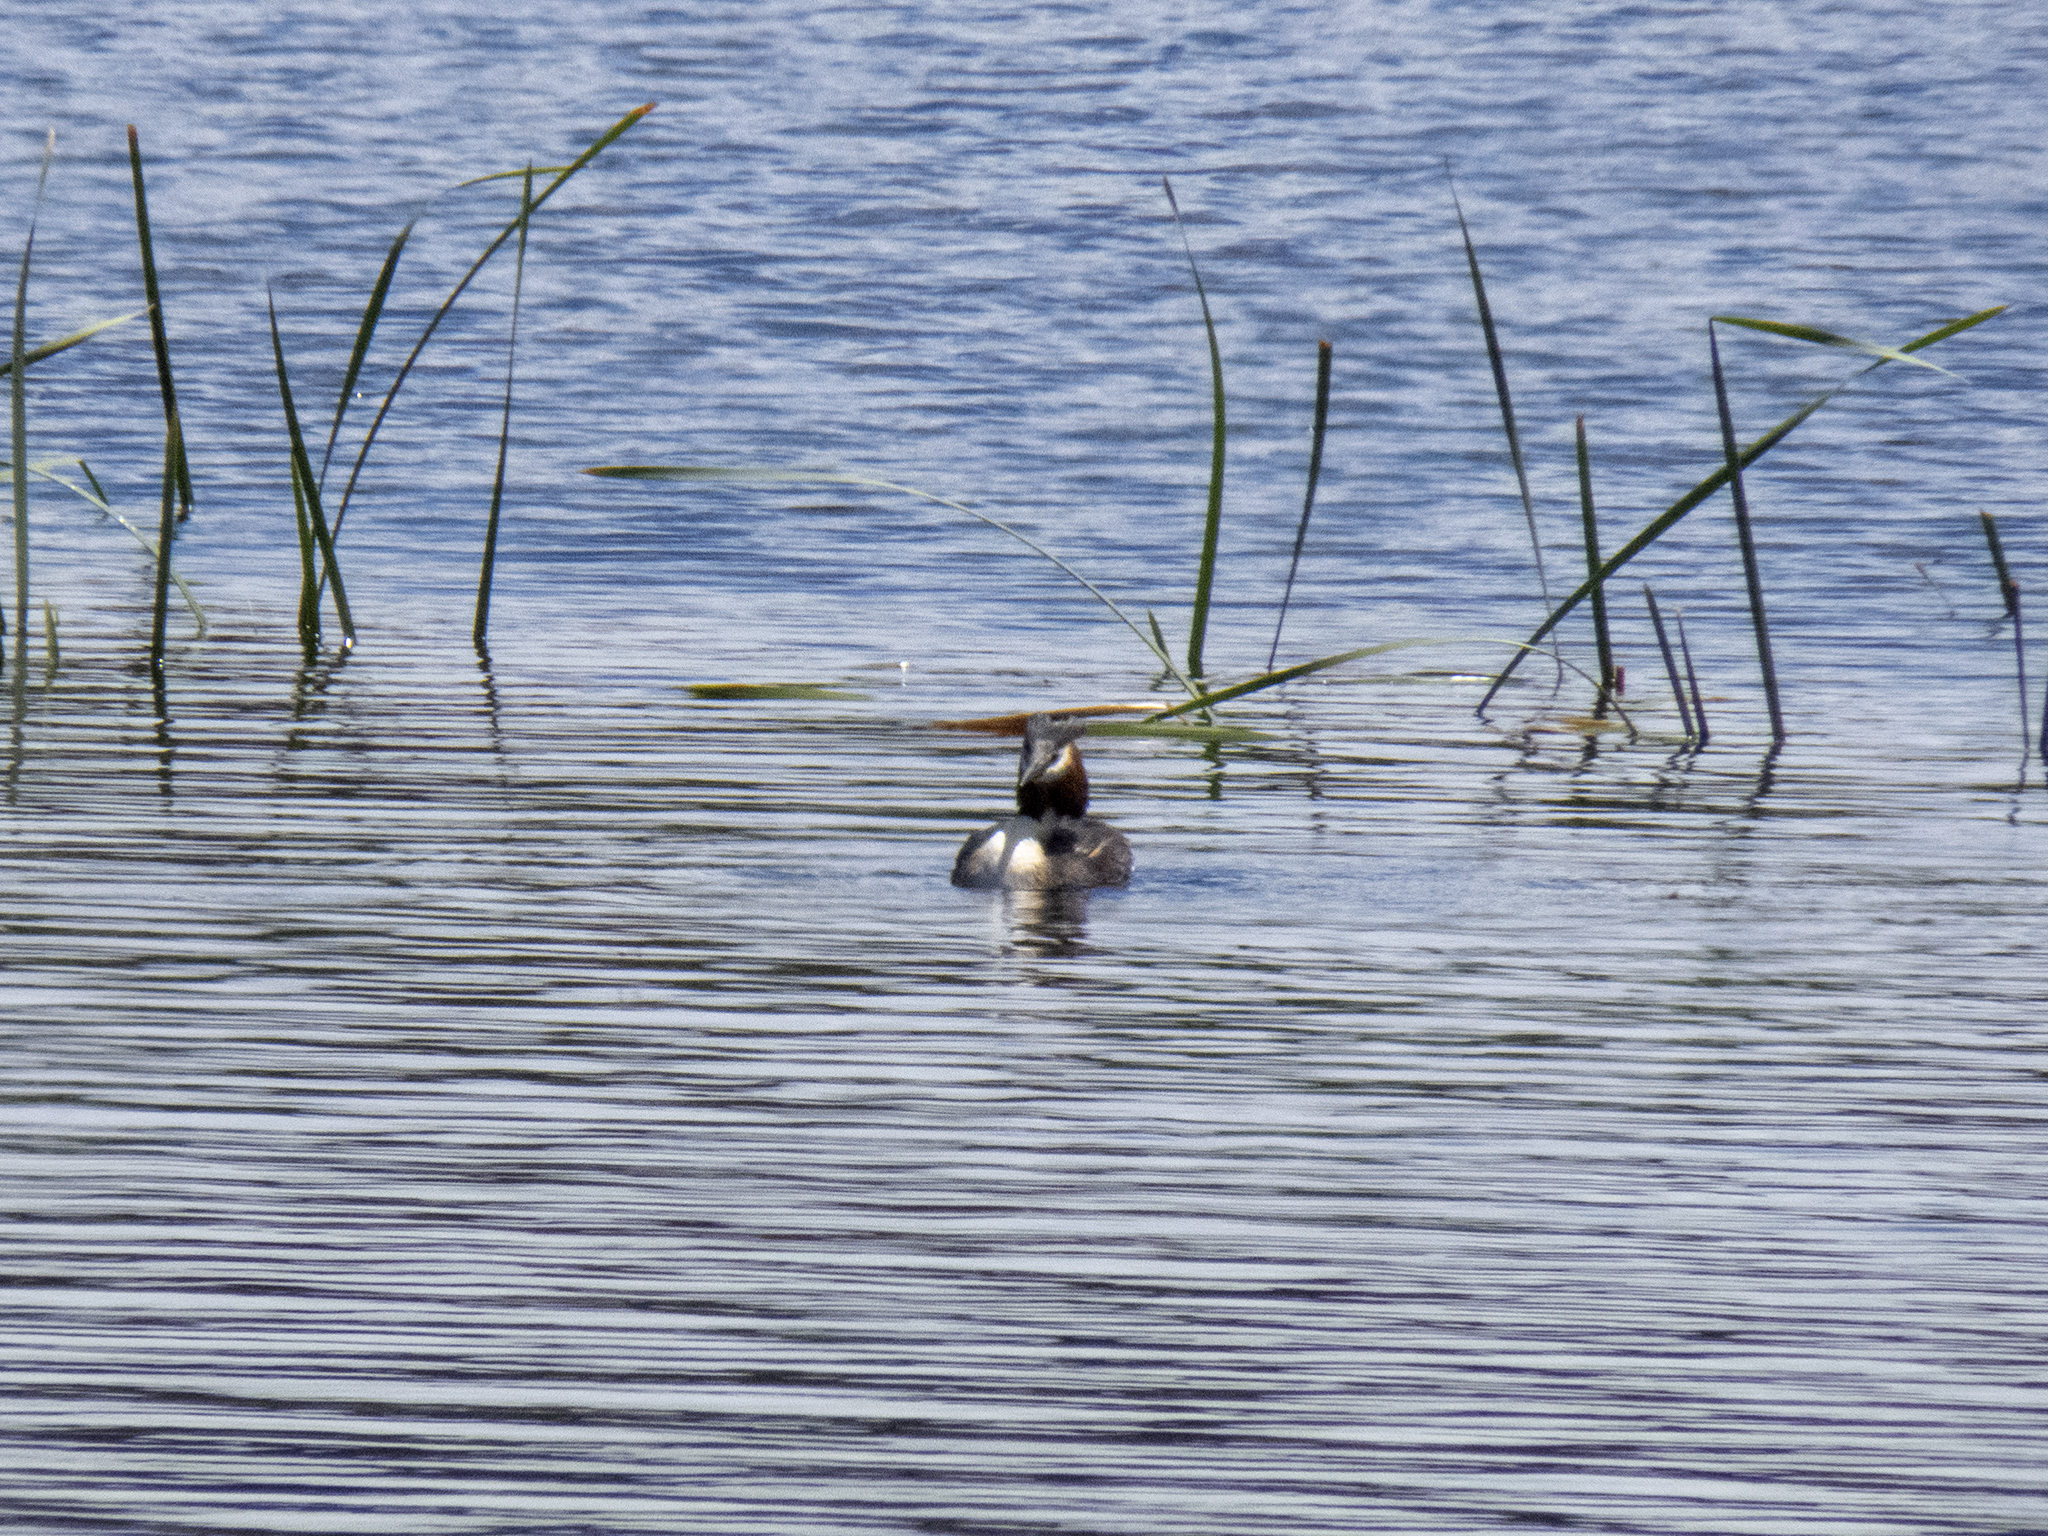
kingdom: Animalia
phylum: Chordata
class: Aves
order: Podicipediformes
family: Podicipedidae
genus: Podiceps
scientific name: Podiceps cristatus
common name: Great crested grebe
